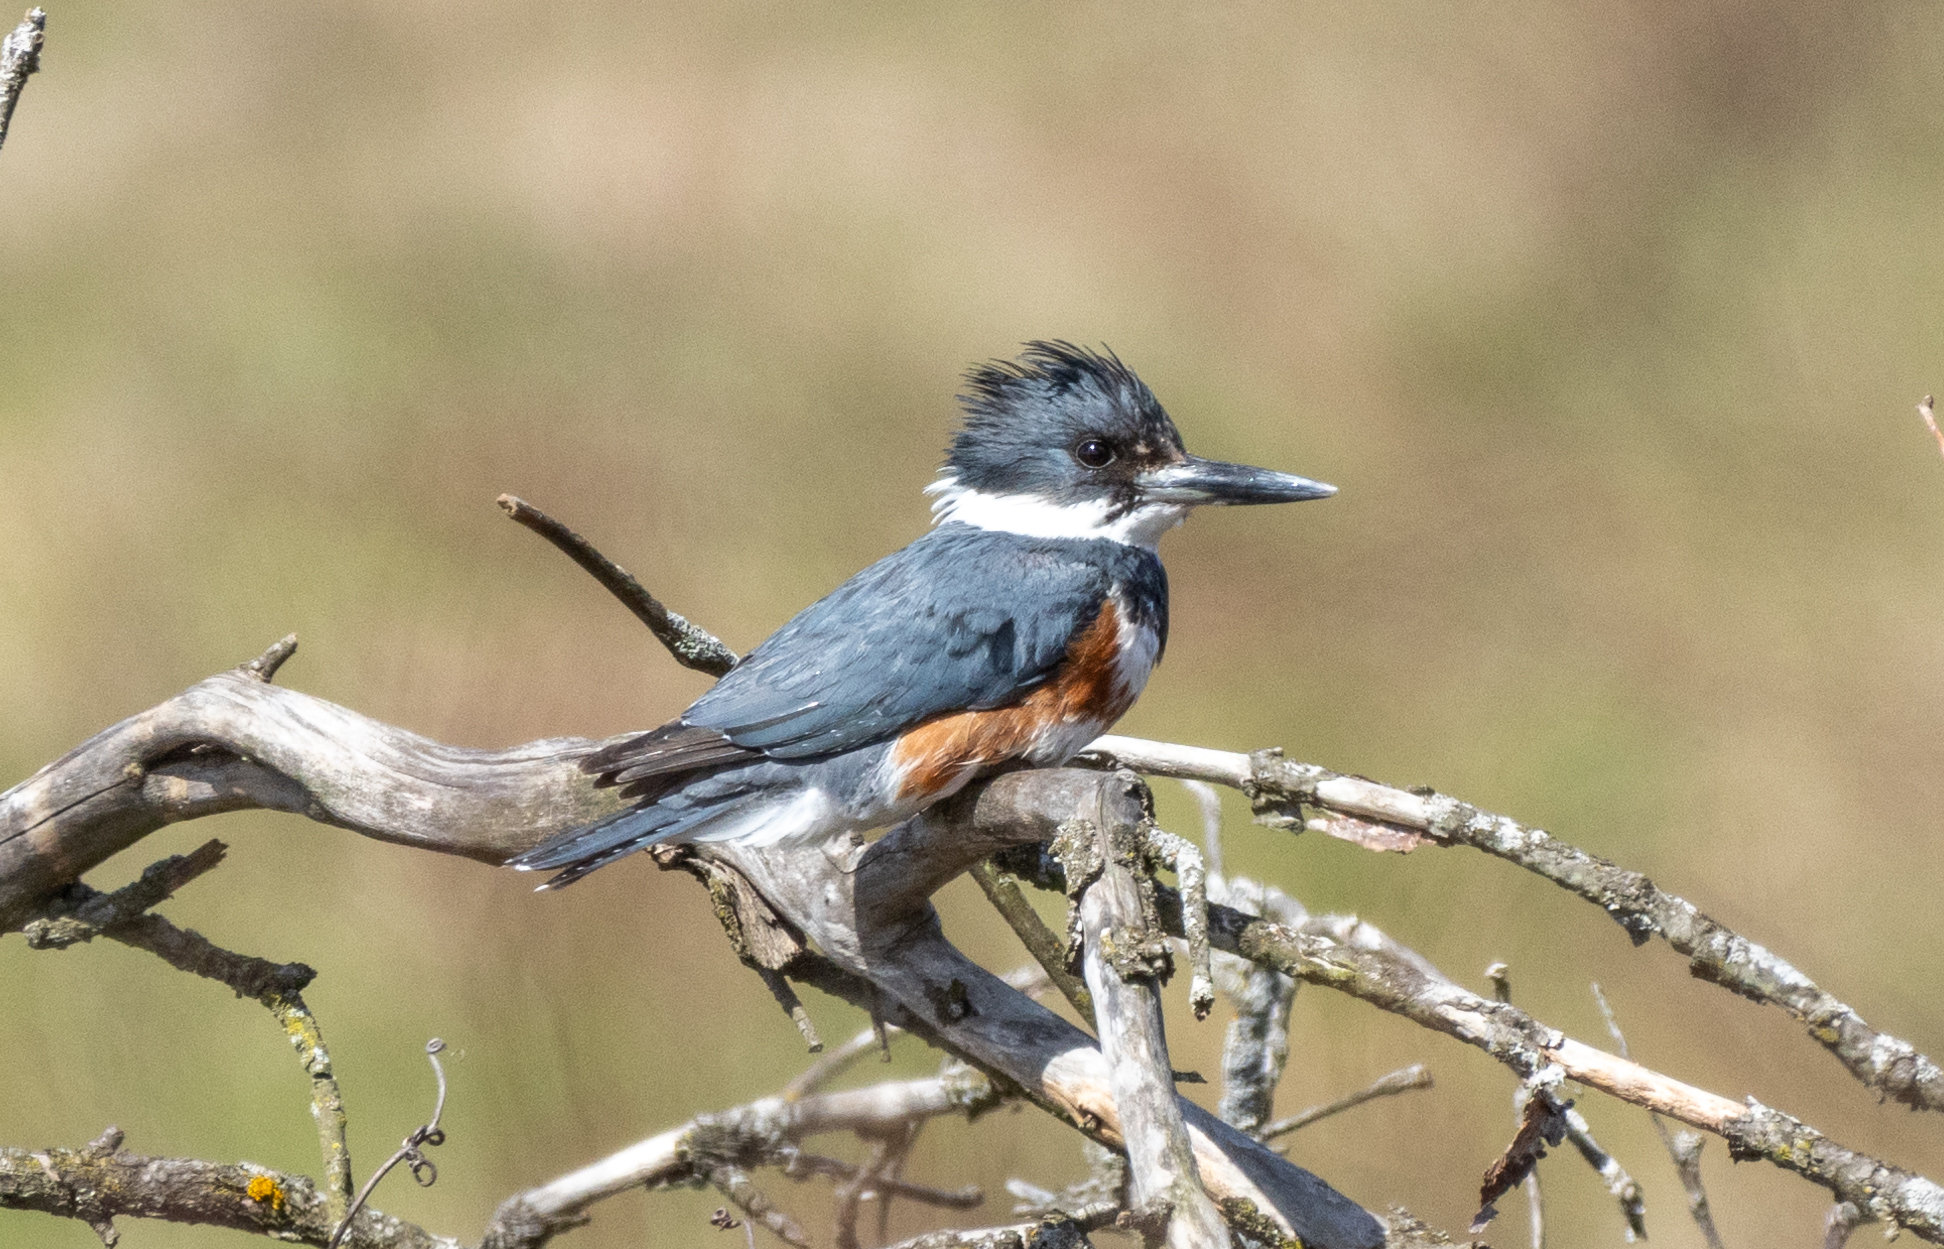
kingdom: Animalia
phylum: Chordata
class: Aves
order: Coraciiformes
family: Alcedinidae
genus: Megaceryle
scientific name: Megaceryle alcyon
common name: Belted kingfisher
